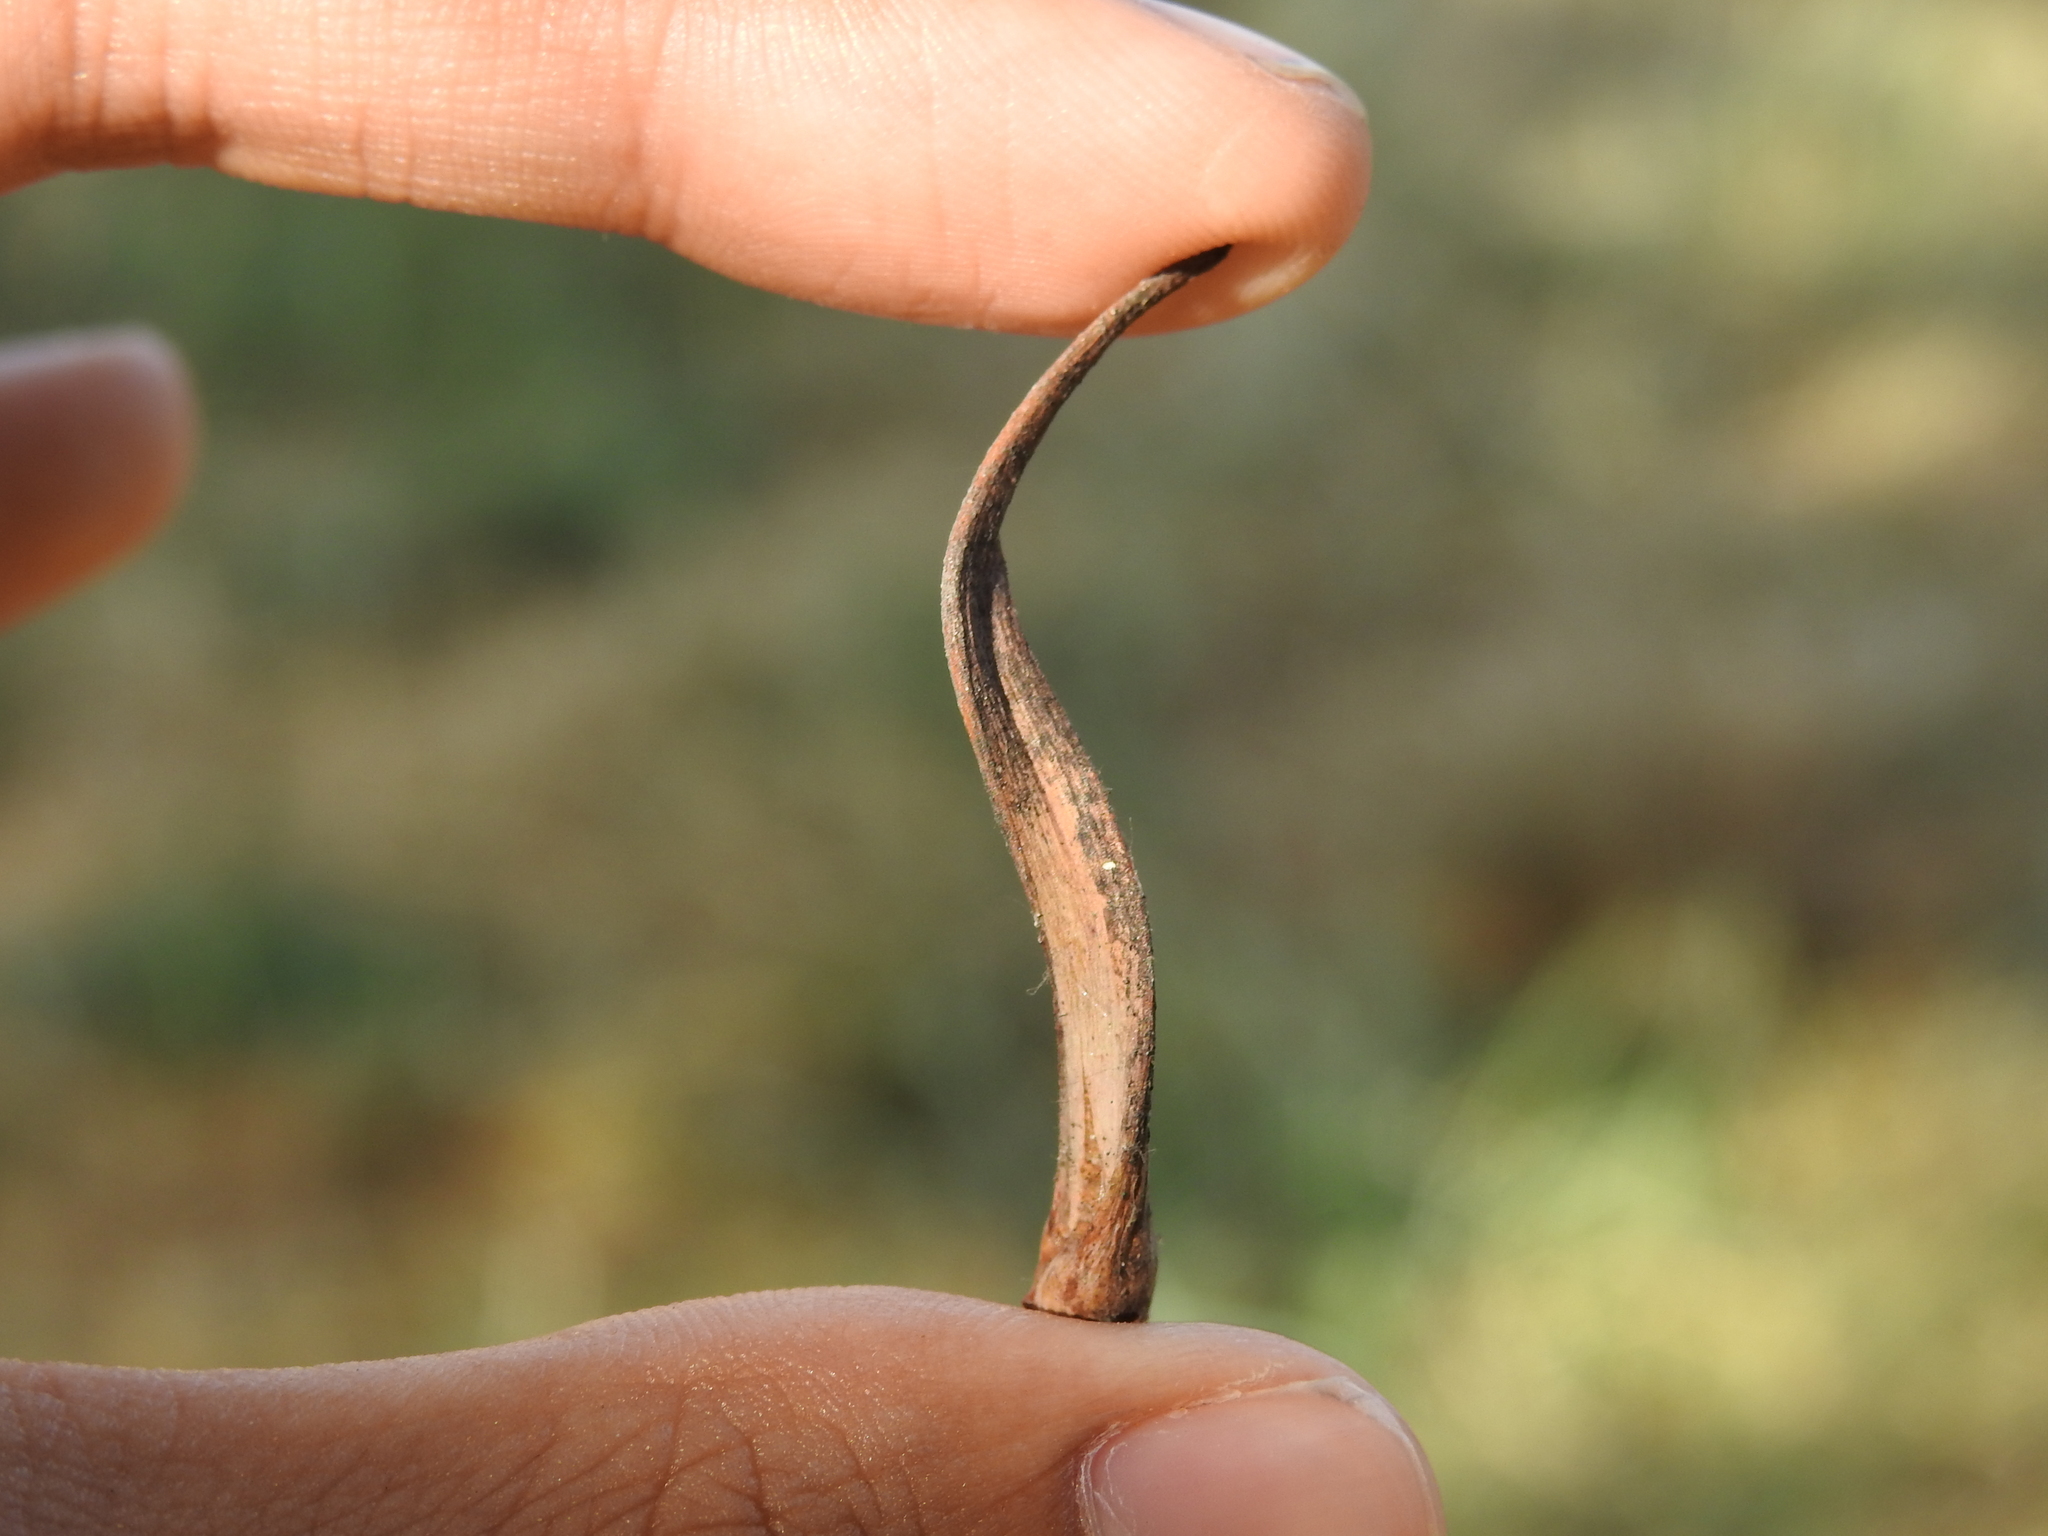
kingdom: Animalia
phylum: Arthropoda
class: Insecta
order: Hymenoptera
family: Cynipidae
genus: Andricus
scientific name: Andricus aries
